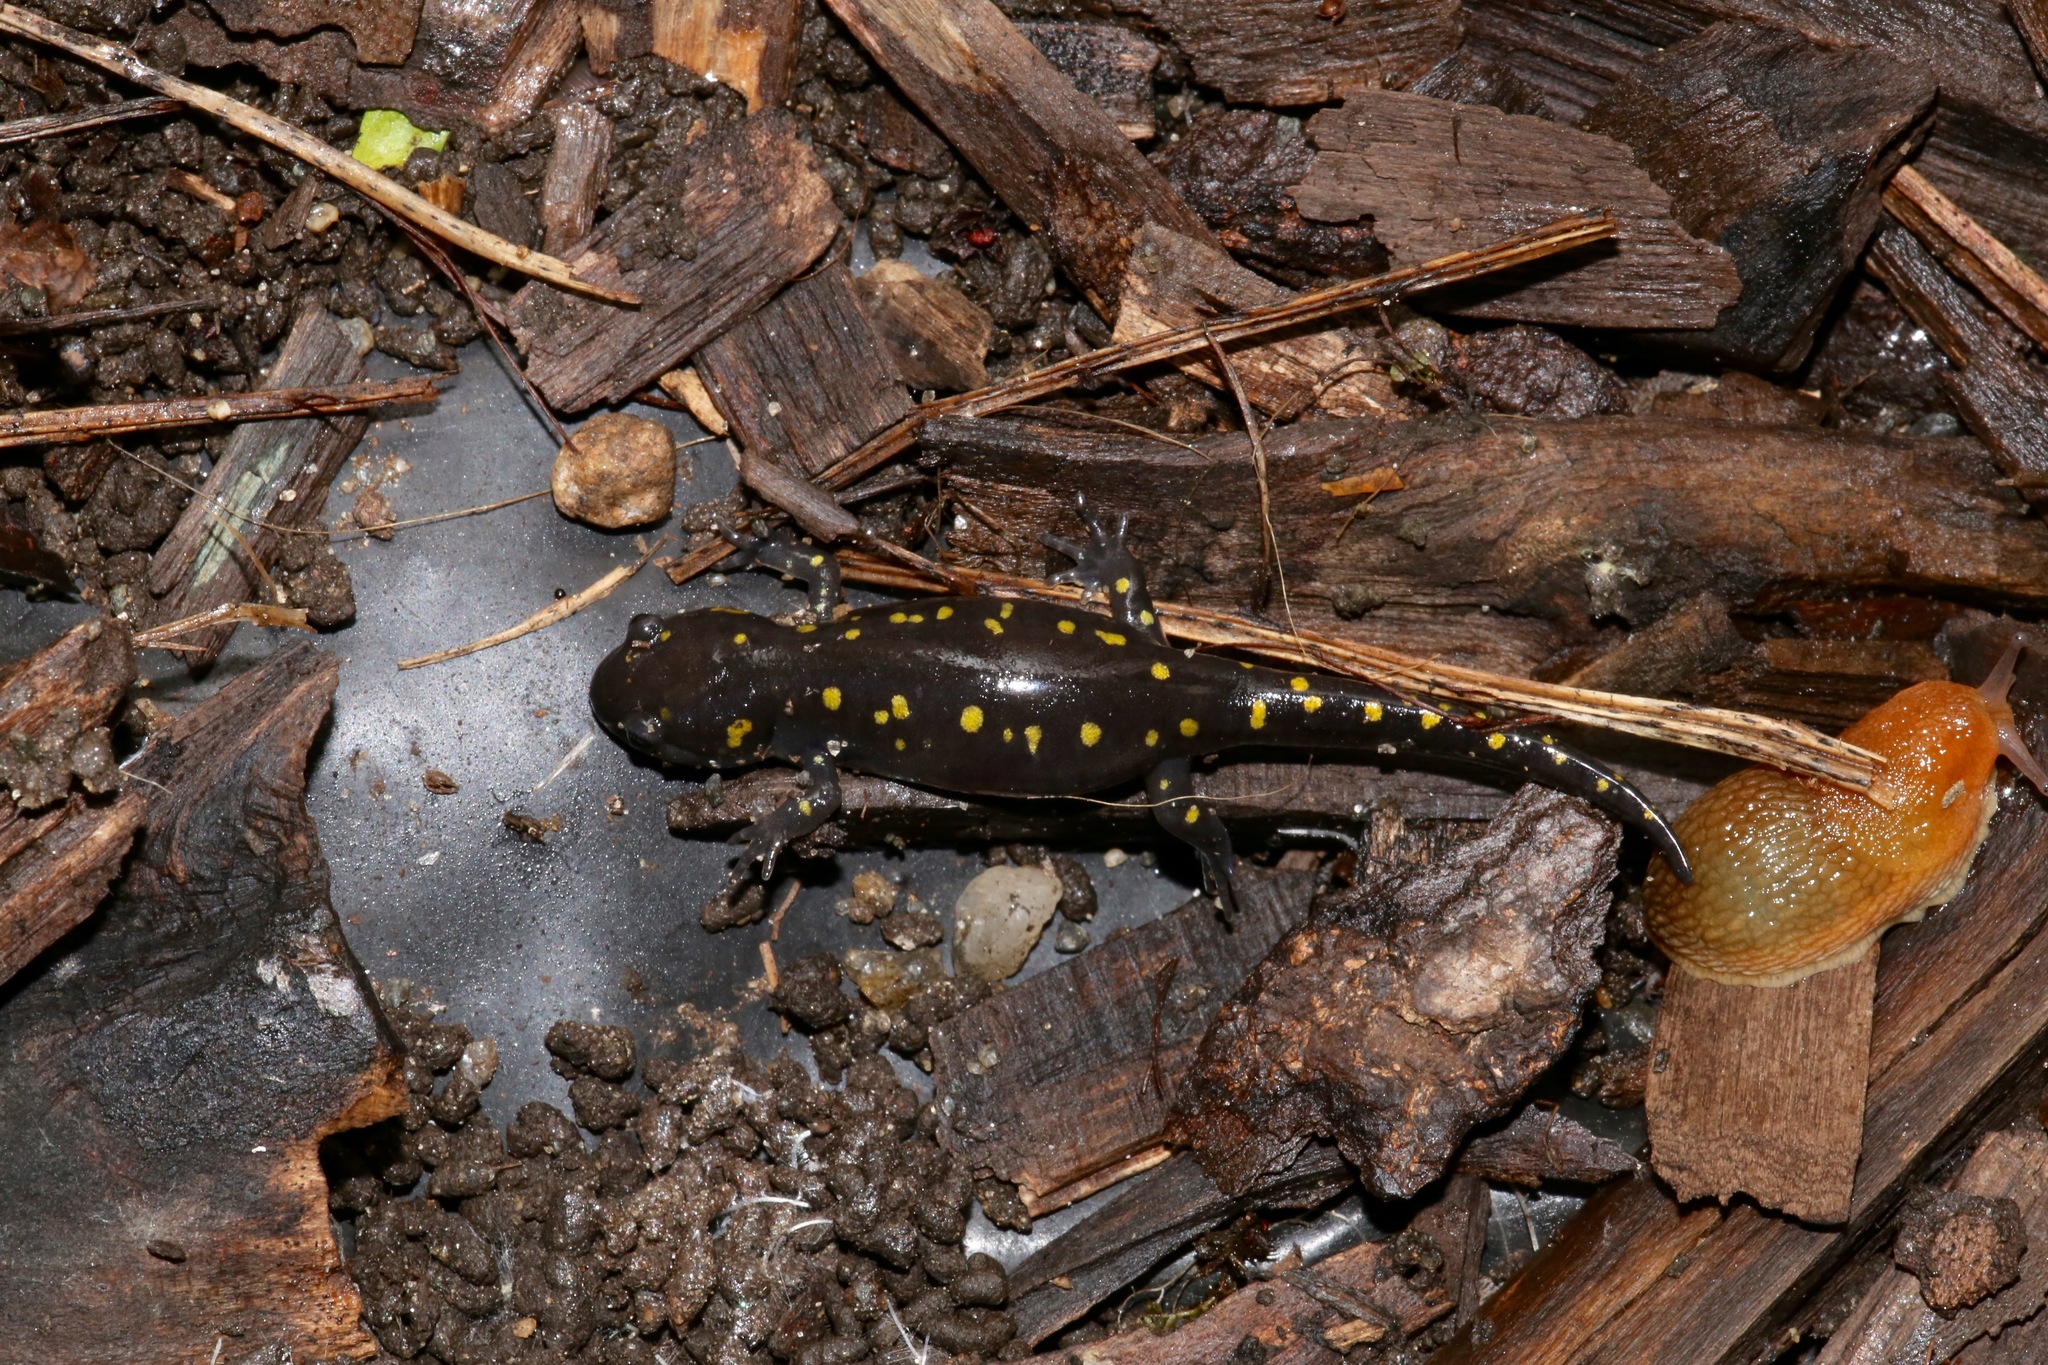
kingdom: Animalia
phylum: Chordata
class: Amphibia
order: Caudata
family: Ambystomatidae
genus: Ambystoma
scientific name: Ambystoma maculatum
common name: Spotted salamander
